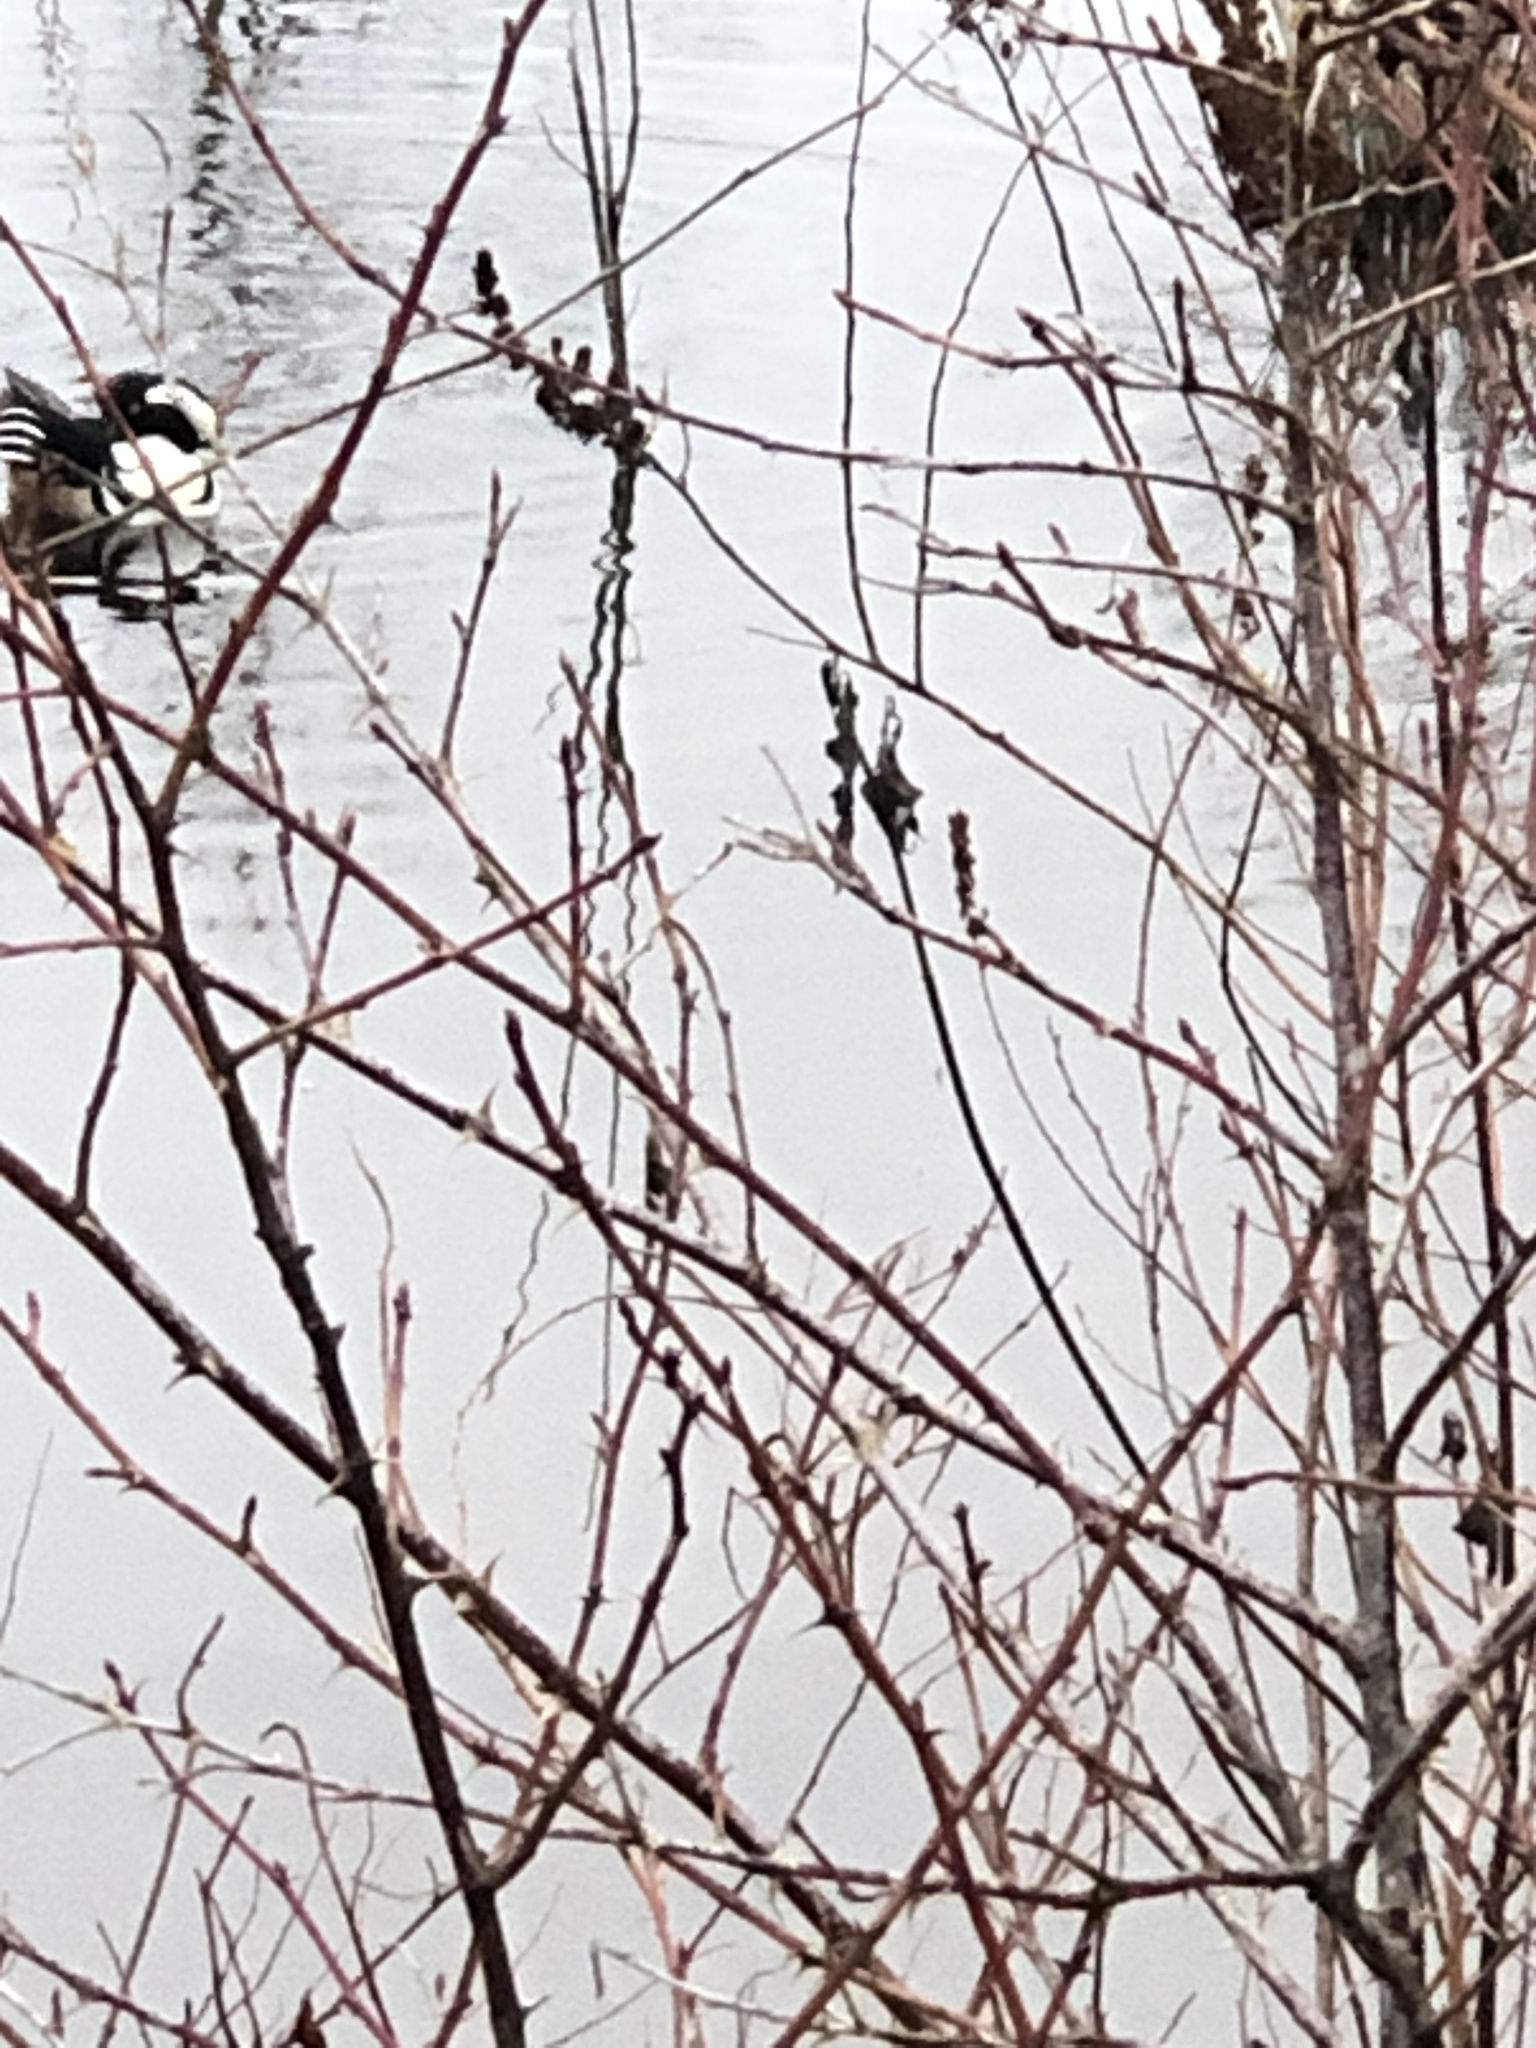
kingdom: Animalia
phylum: Chordata
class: Aves
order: Anseriformes
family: Anatidae
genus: Lophodytes
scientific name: Lophodytes cucullatus
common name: Hooded merganser
